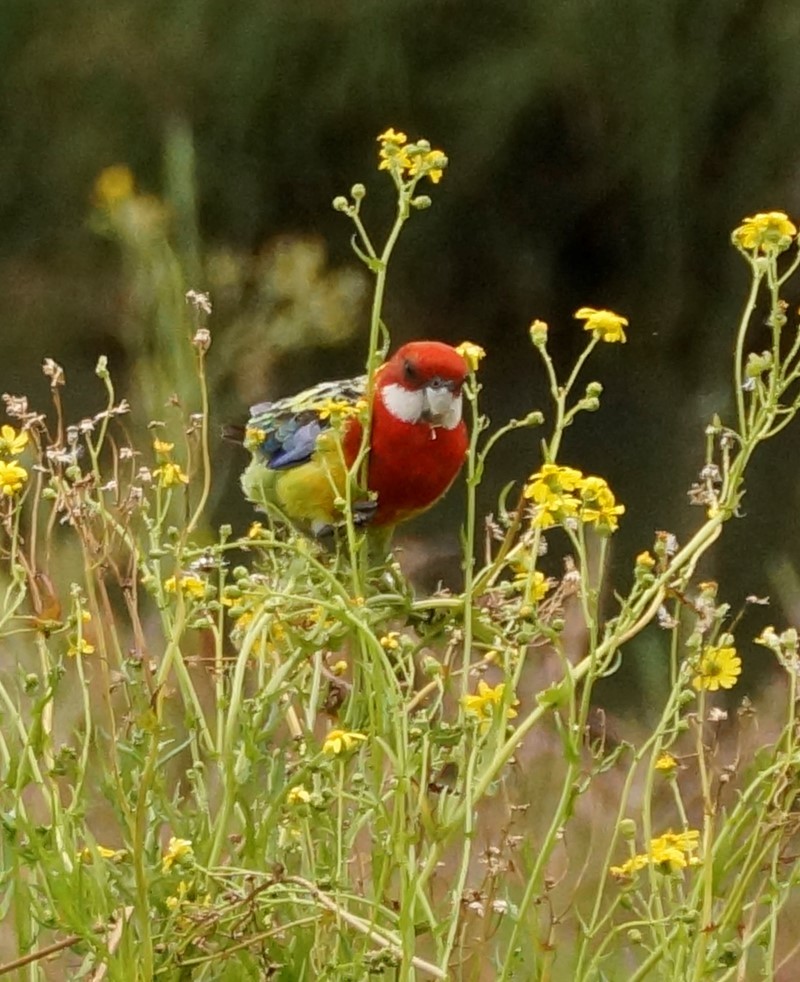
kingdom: Animalia
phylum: Chordata
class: Aves
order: Psittaciformes
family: Psittacidae
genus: Platycercus
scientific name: Platycercus eximius
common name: Eastern rosella
